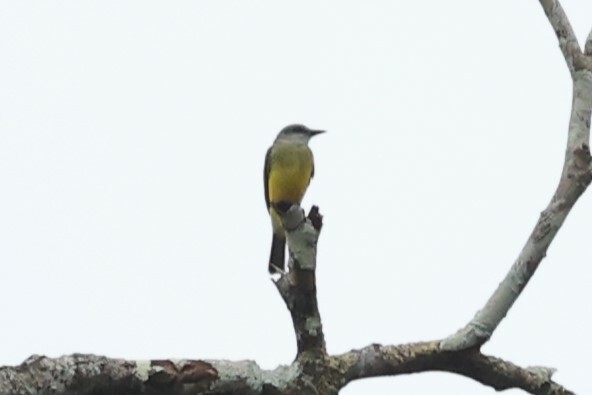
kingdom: Animalia
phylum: Chordata
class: Aves
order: Passeriformes
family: Tyrannidae
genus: Tyrannus
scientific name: Tyrannus melancholicus
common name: Tropical kingbird
